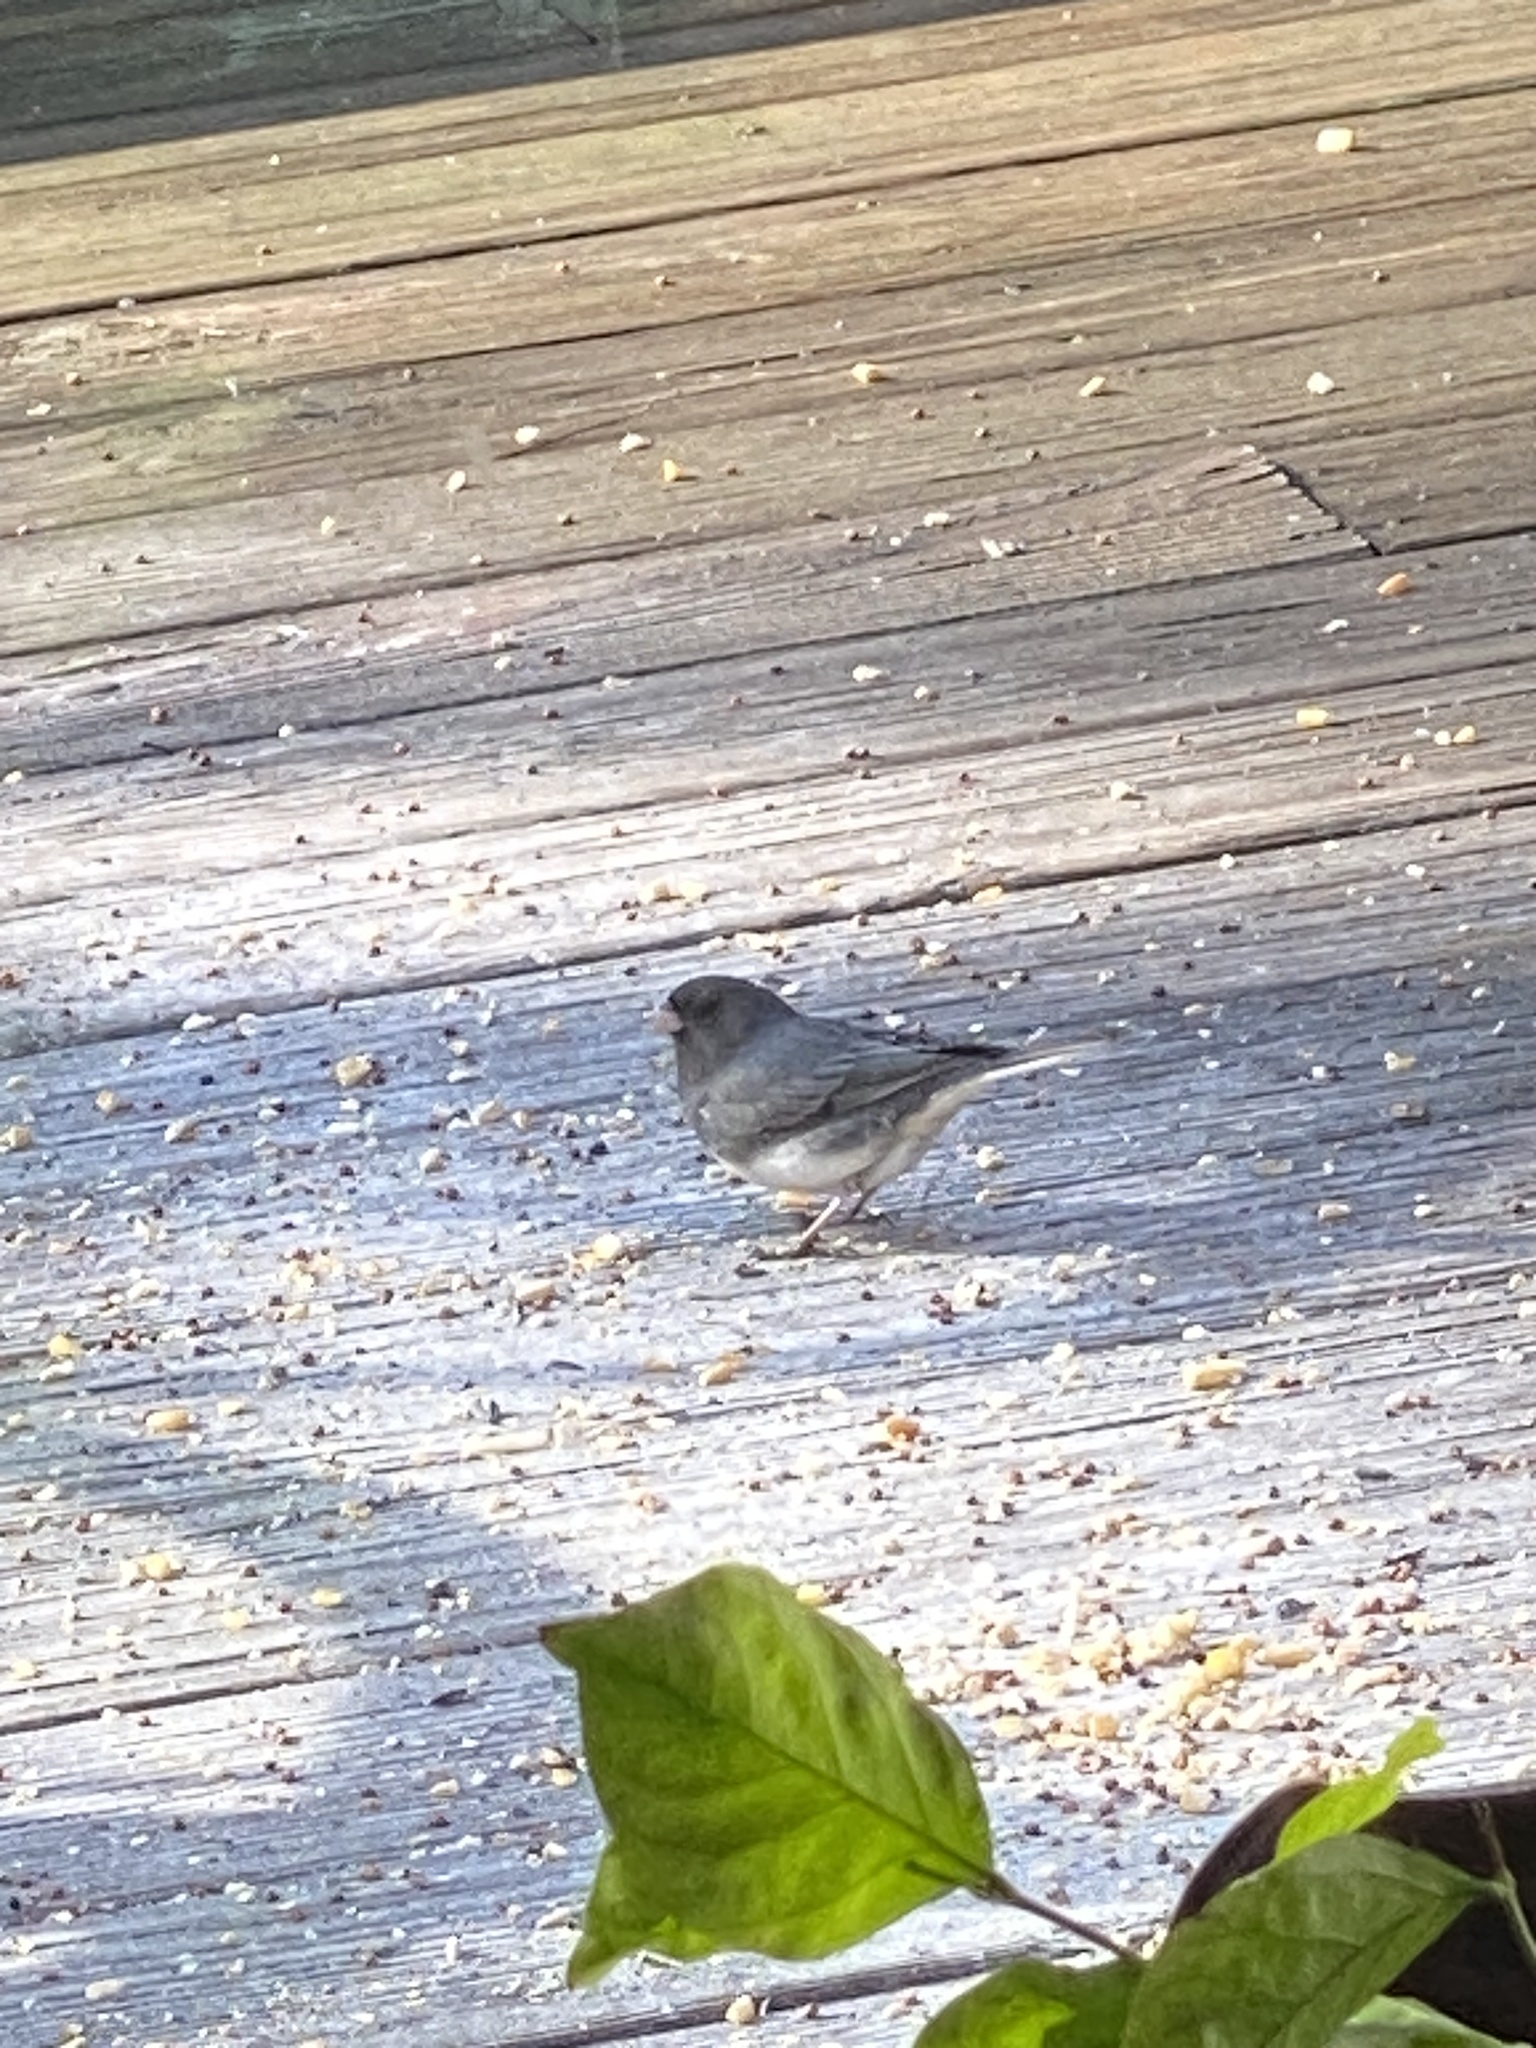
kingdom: Animalia
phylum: Chordata
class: Aves
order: Passeriformes
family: Passerellidae
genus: Junco
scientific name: Junco hyemalis
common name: Dark-eyed junco
